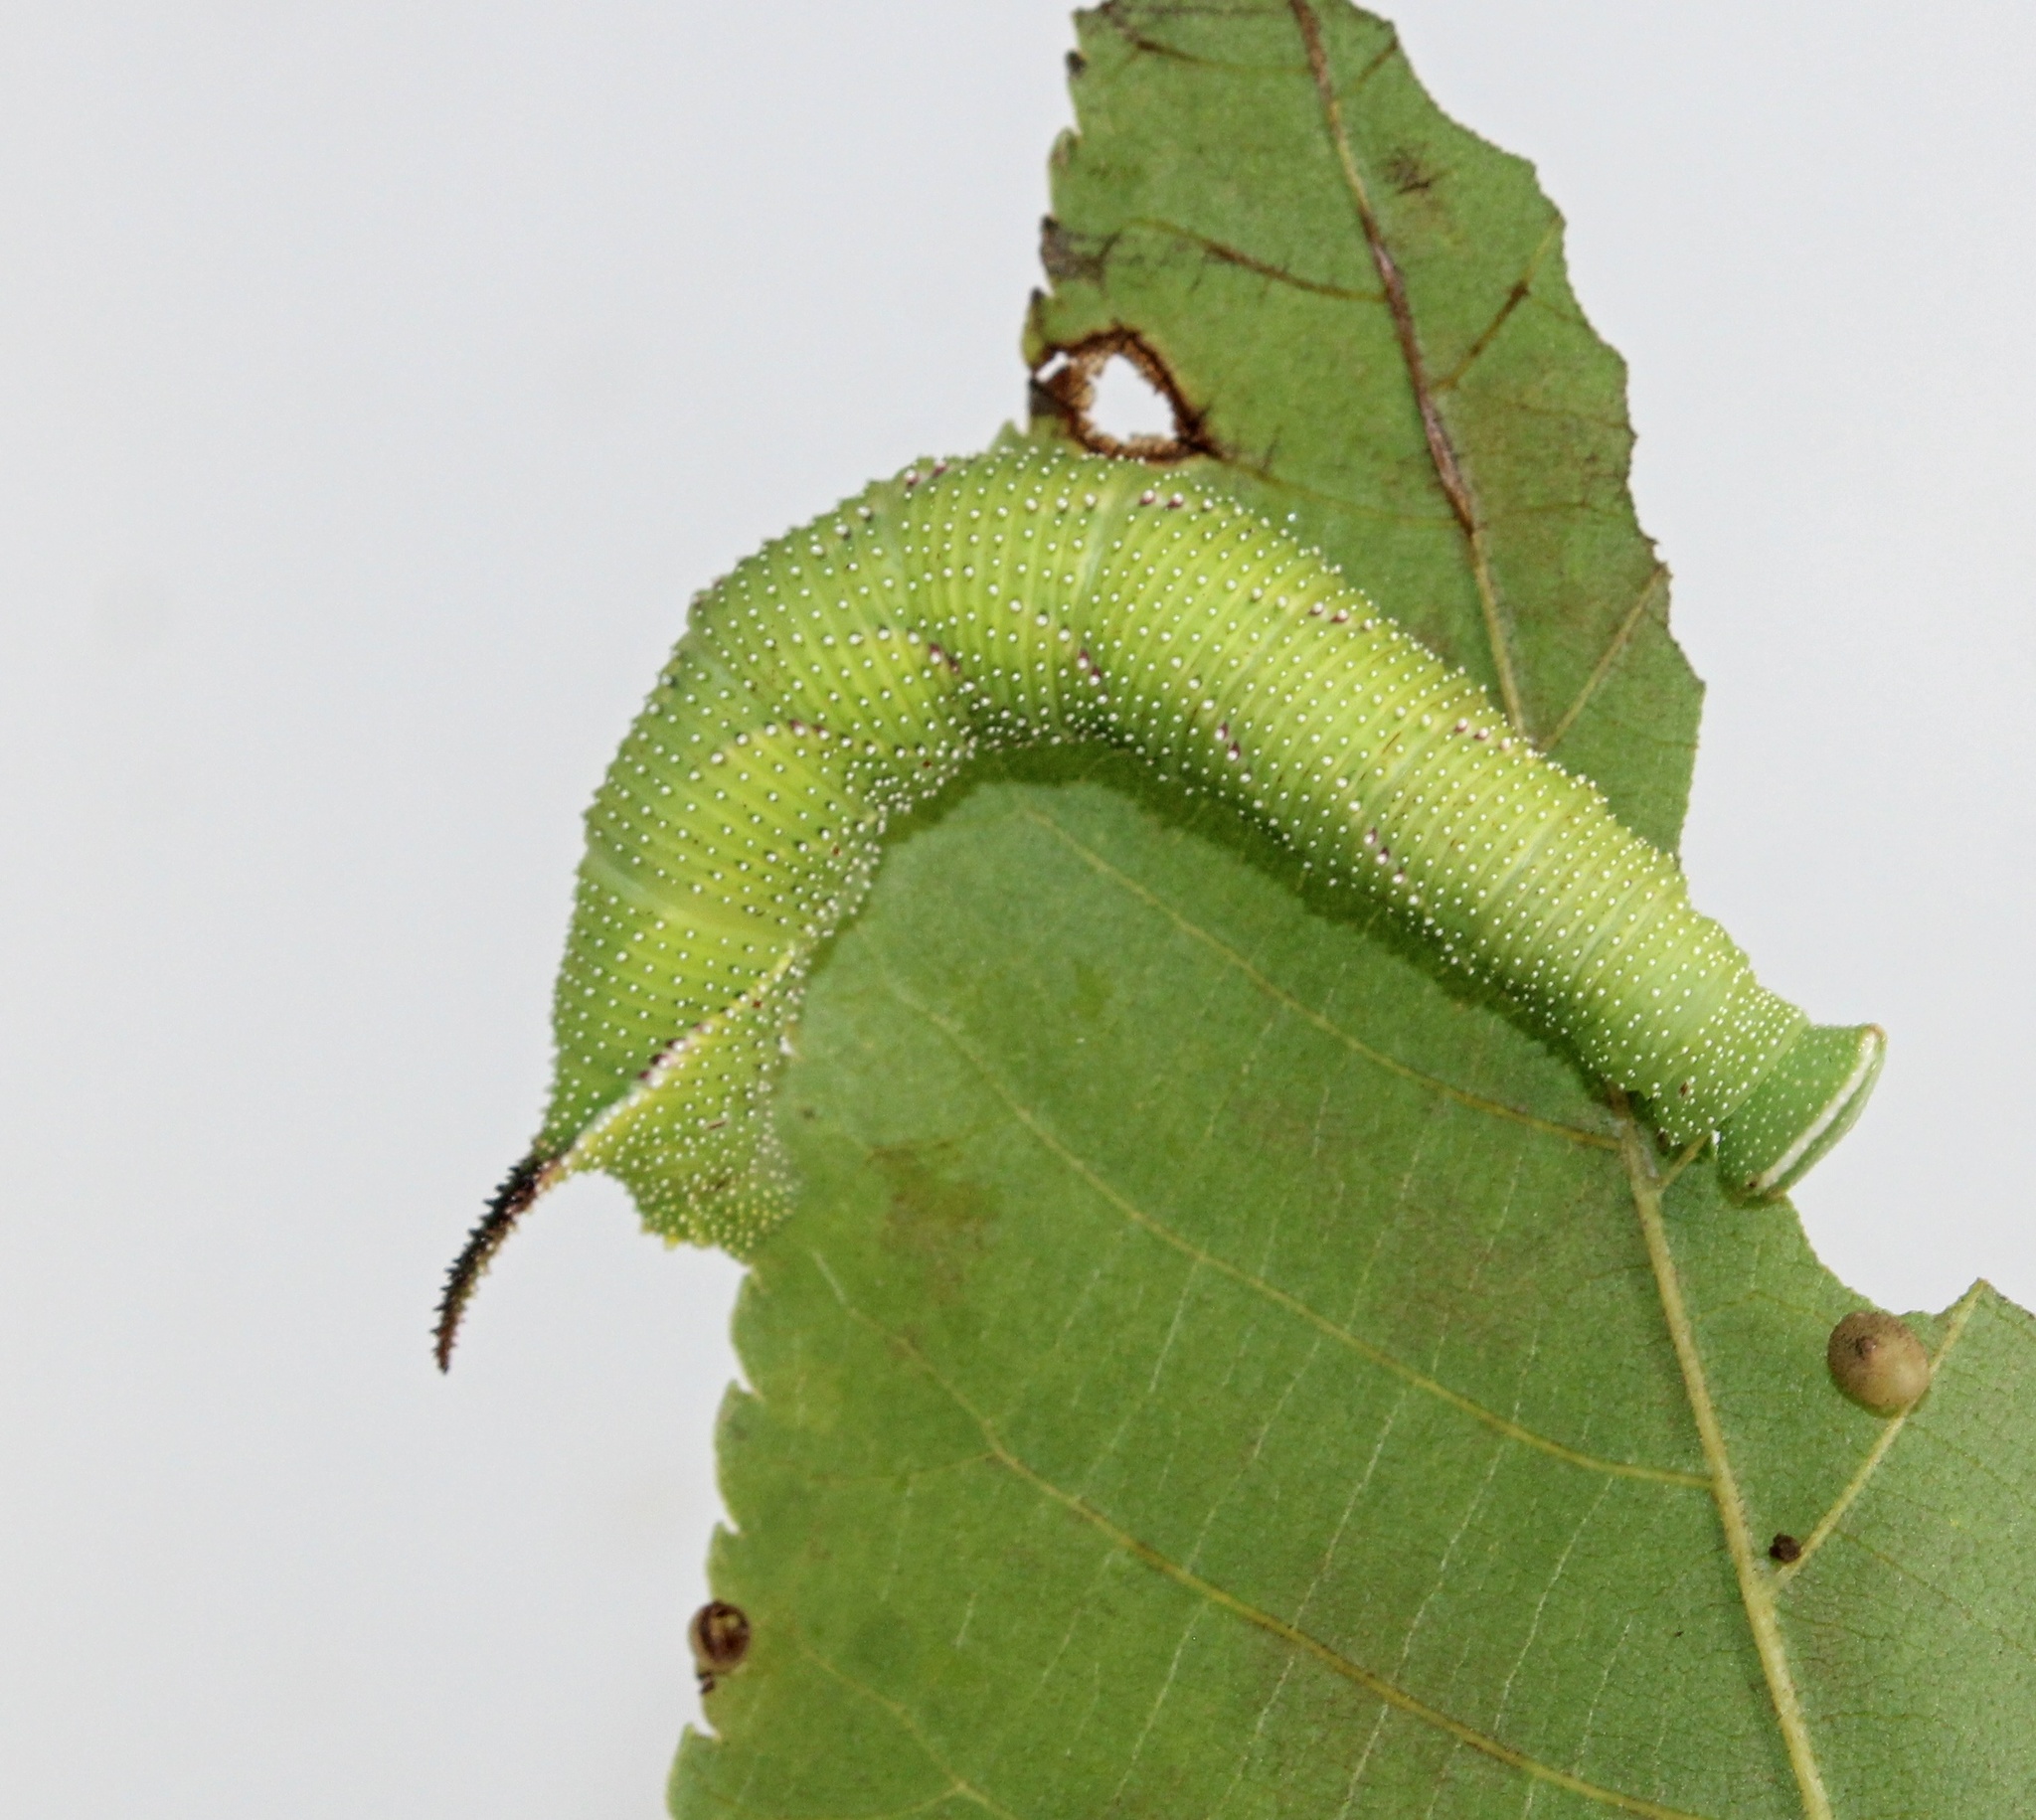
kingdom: Animalia
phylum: Arthropoda
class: Insecta
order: Lepidoptera
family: Sphingidae
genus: Amorpha
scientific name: Amorpha juglandis
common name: Walnut sphinx
